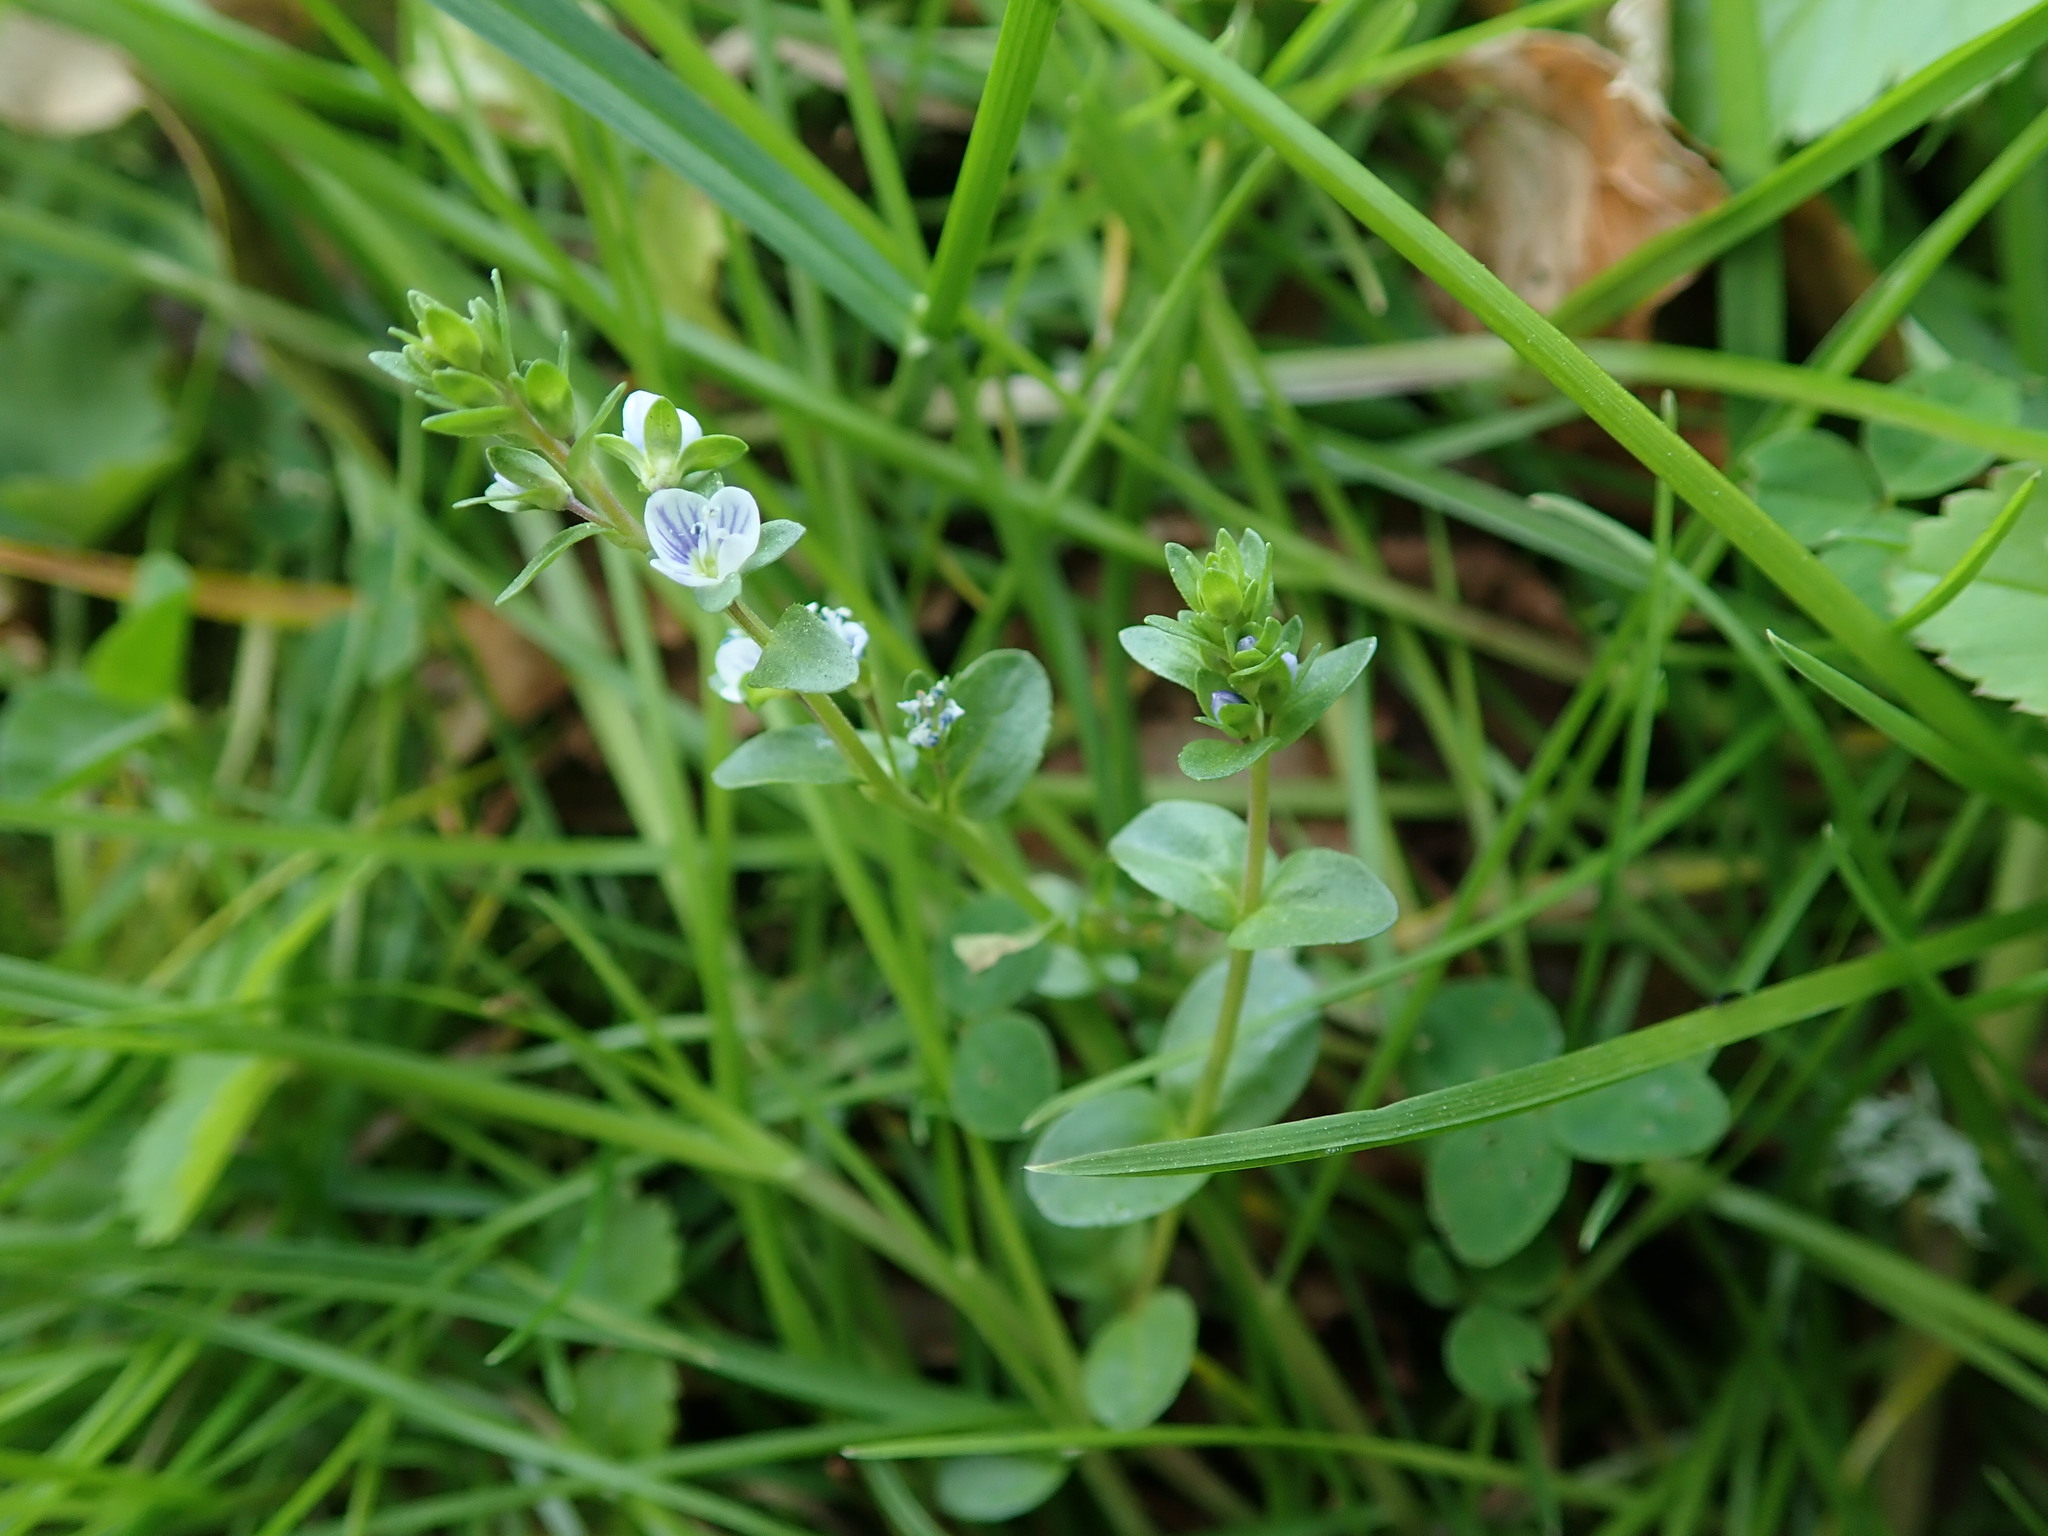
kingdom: Plantae
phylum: Tracheophyta
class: Magnoliopsida
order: Lamiales
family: Plantaginaceae
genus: Veronica
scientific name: Veronica serpyllifolia
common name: Thyme-leaved speedwell
